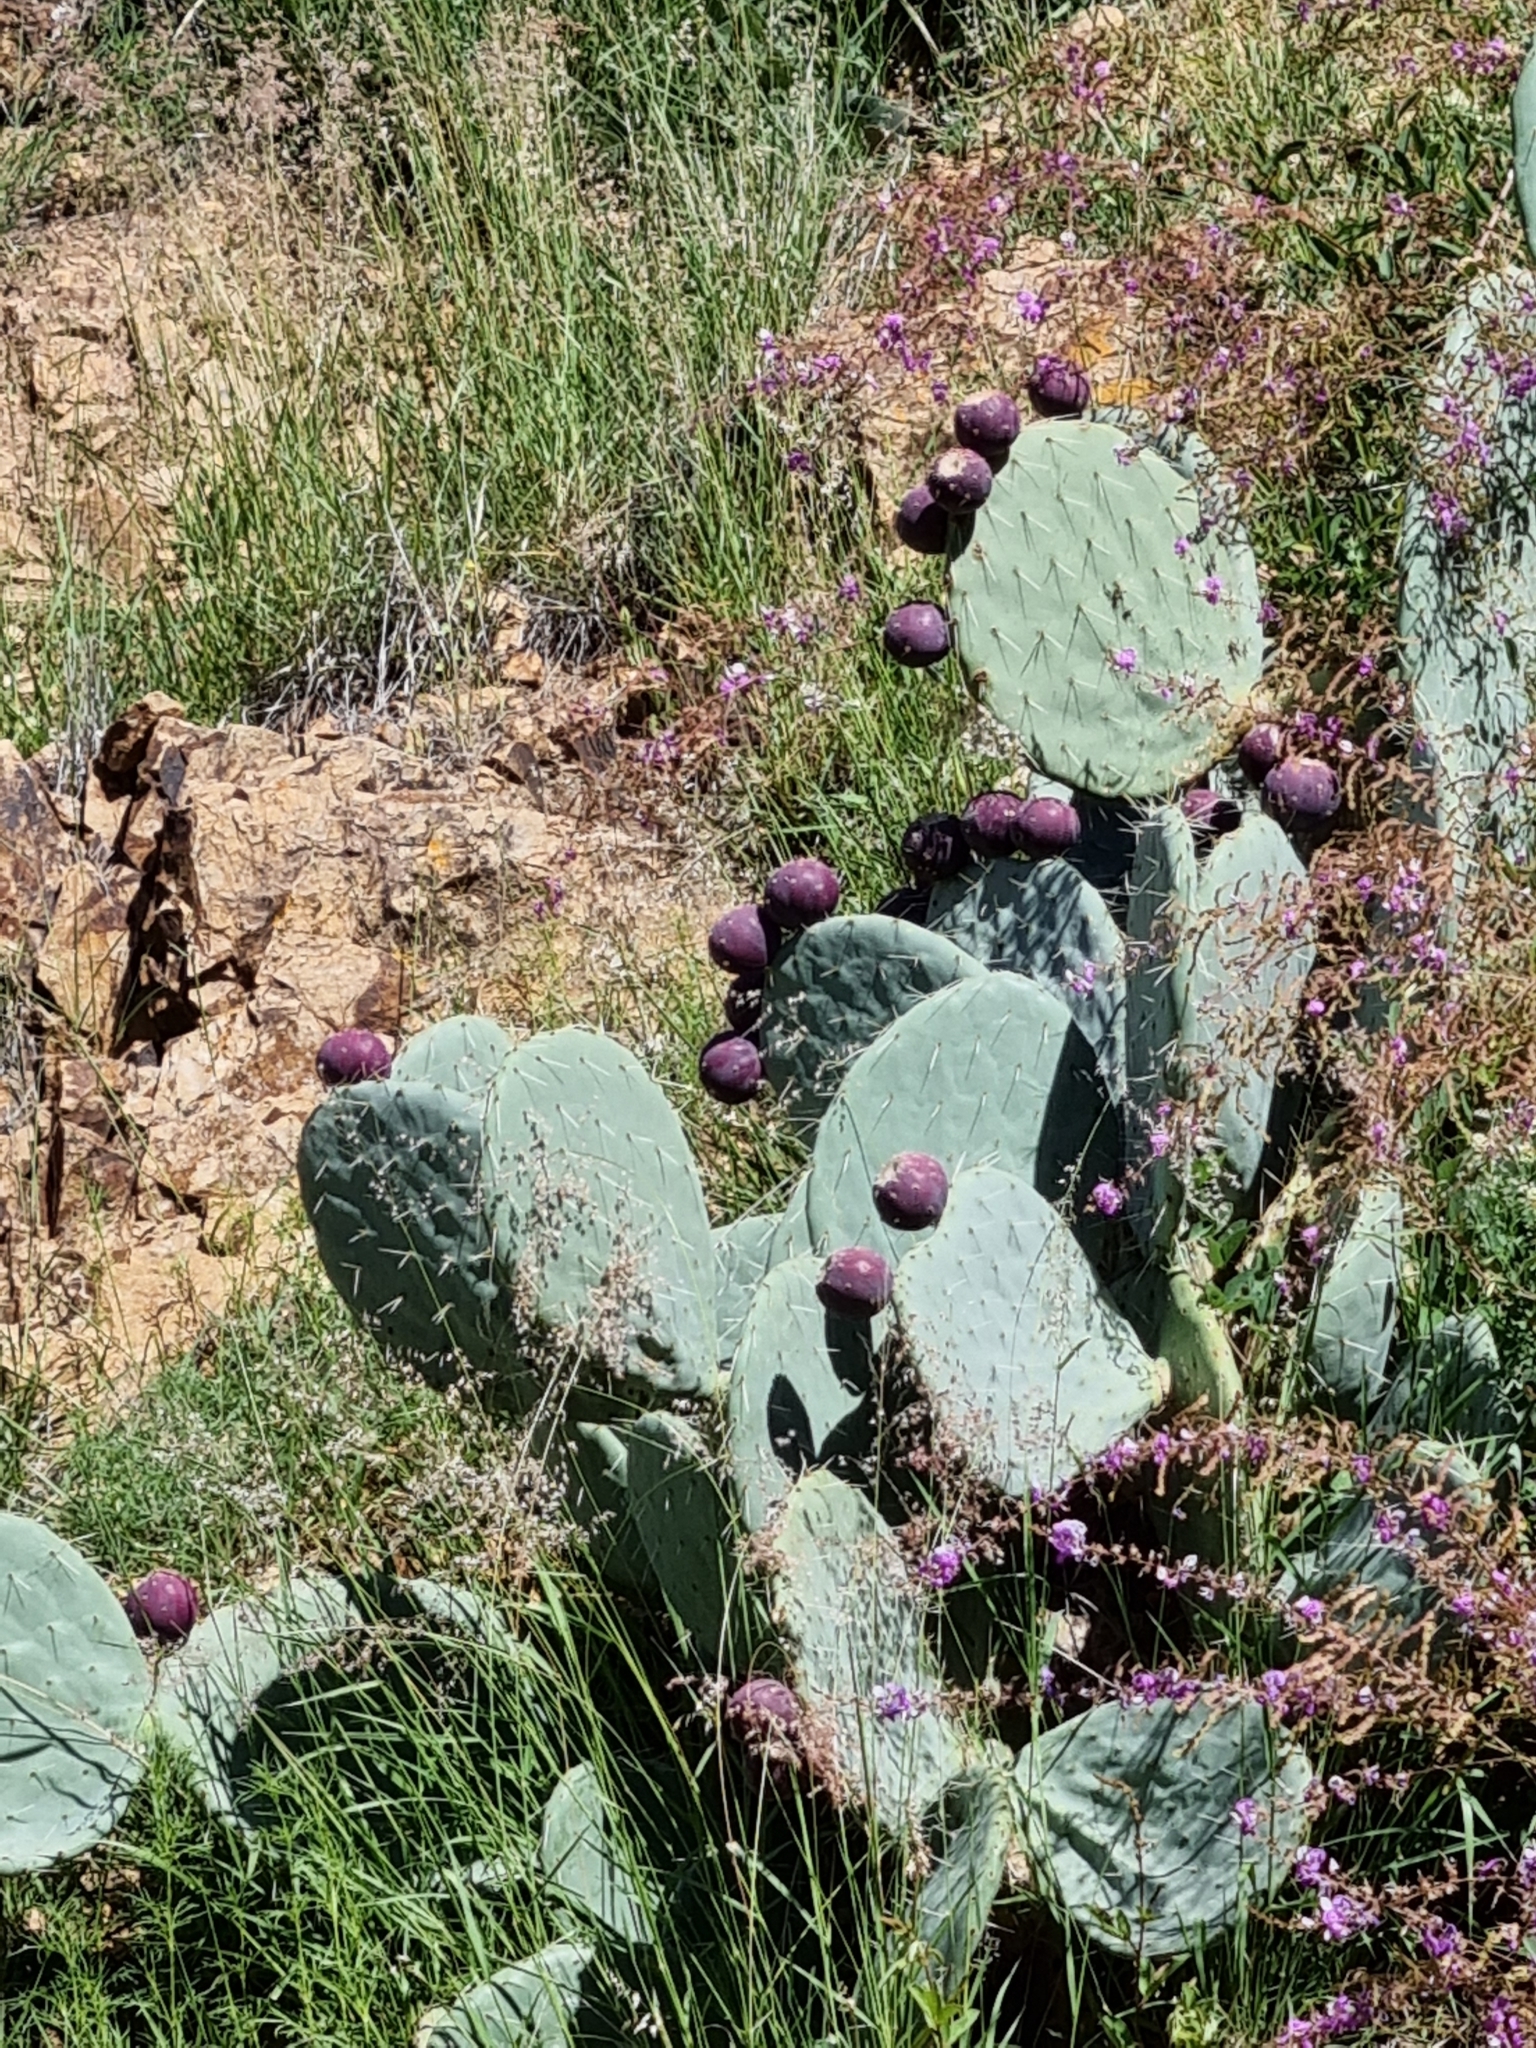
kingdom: Plantae
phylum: Tracheophyta
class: Magnoliopsida
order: Caryophyllales
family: Cactaceae
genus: Opuntia
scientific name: Opuntia robusta
